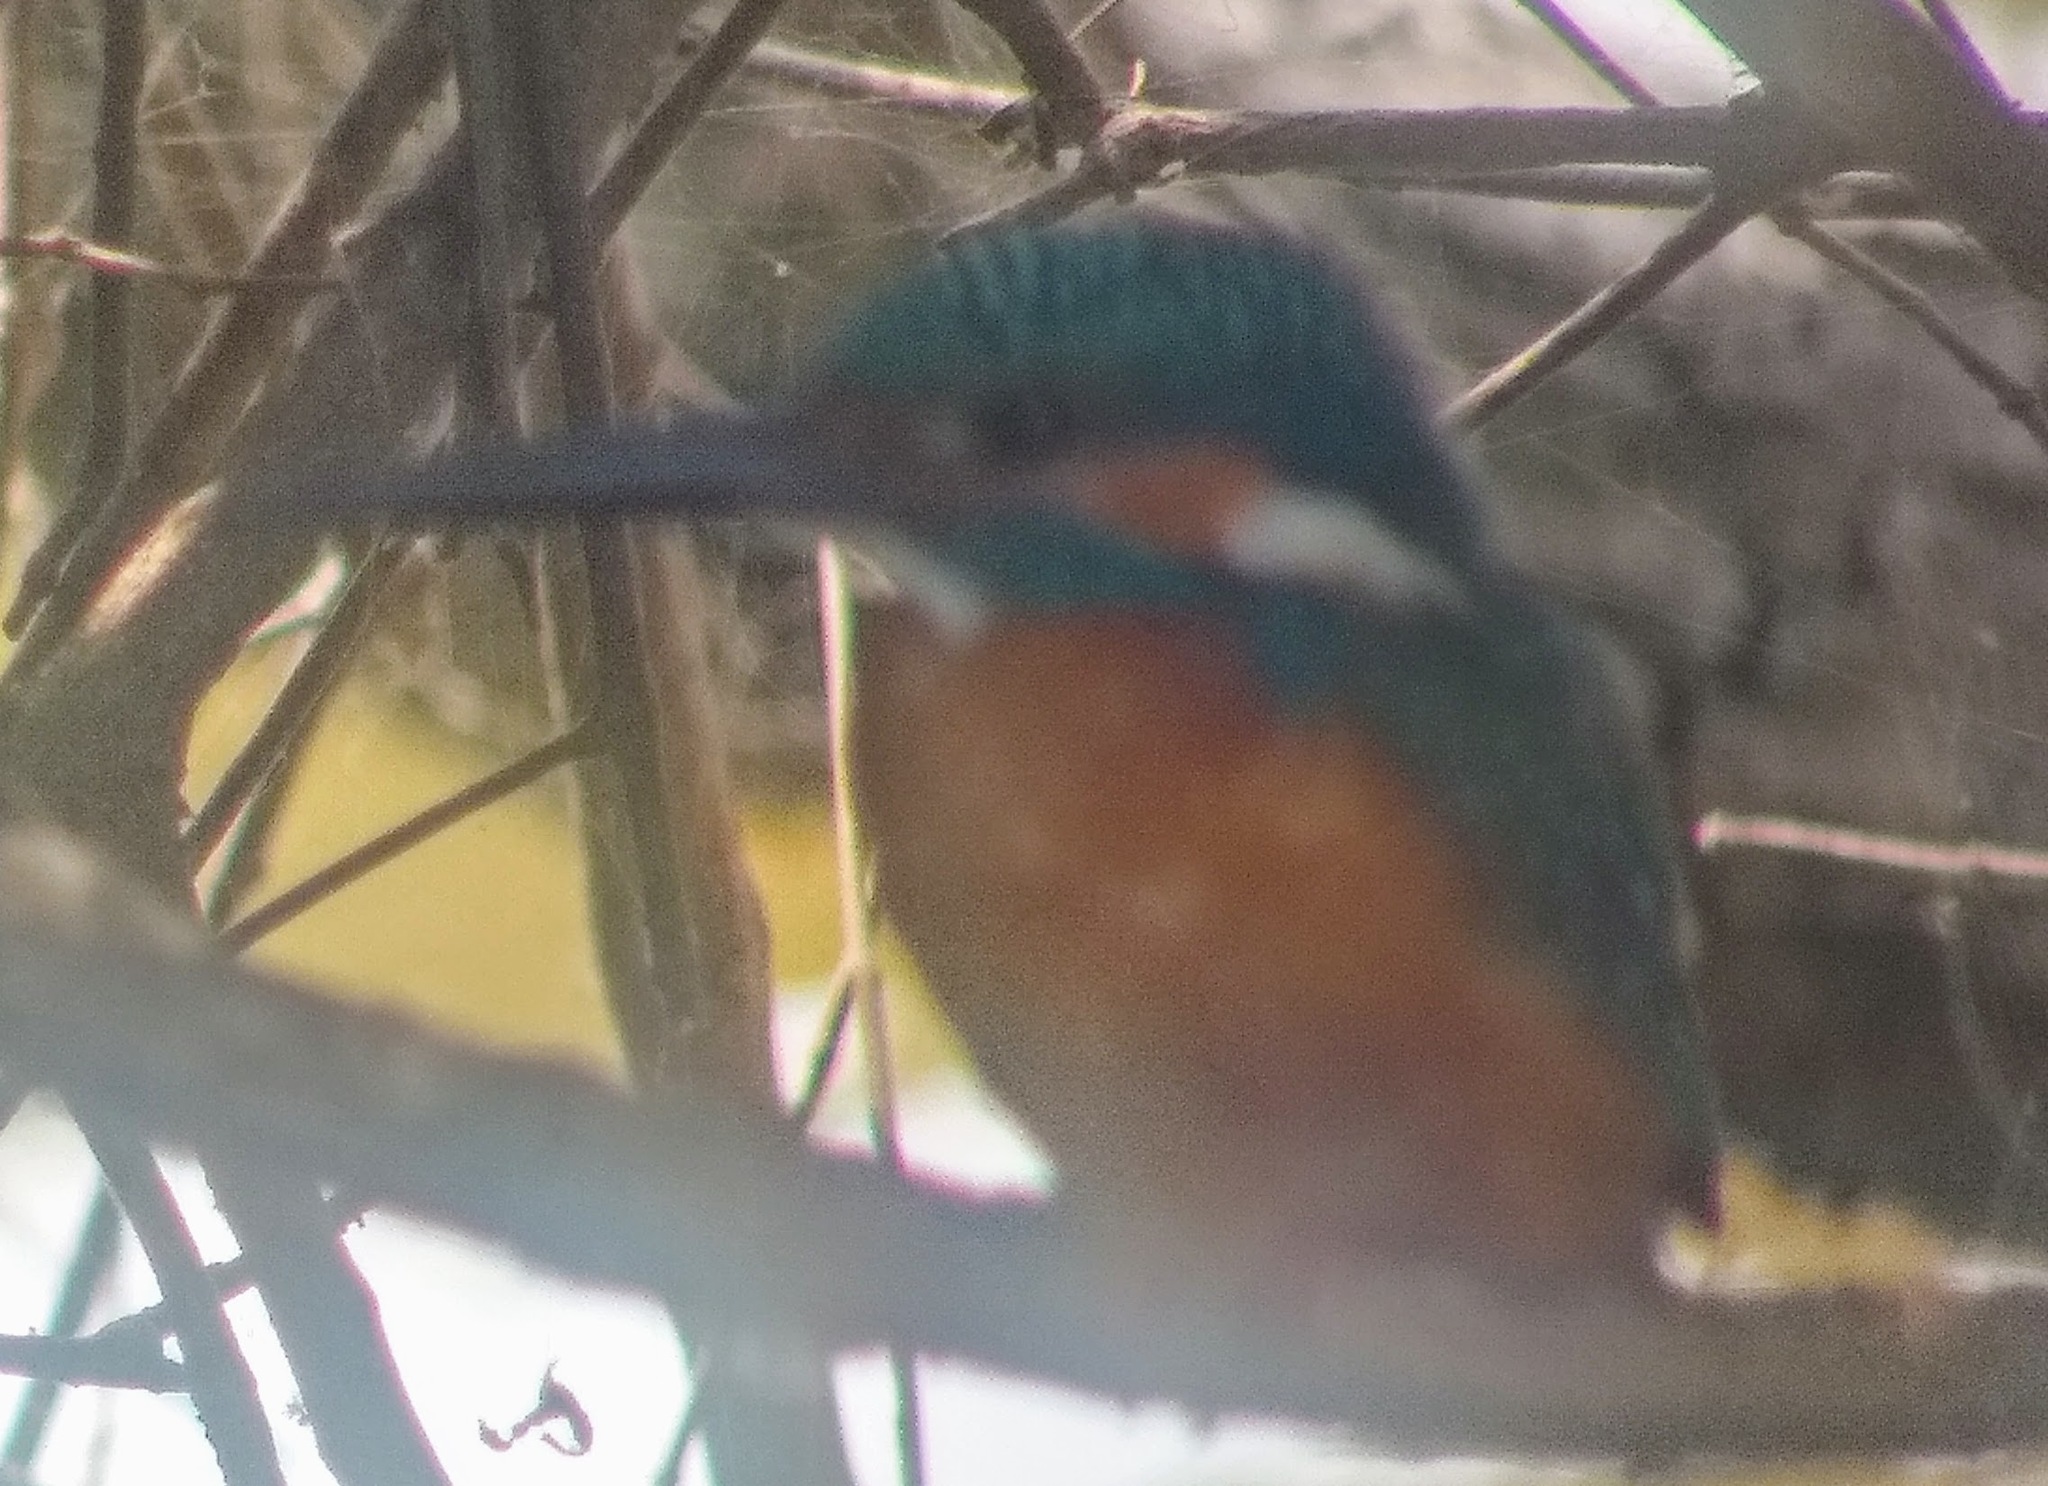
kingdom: Animalia
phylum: Chordata
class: Aves
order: Coraciiformes
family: Alcedinidae
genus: Alcedo
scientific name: Alcedo atthis
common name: Common kingfisher
